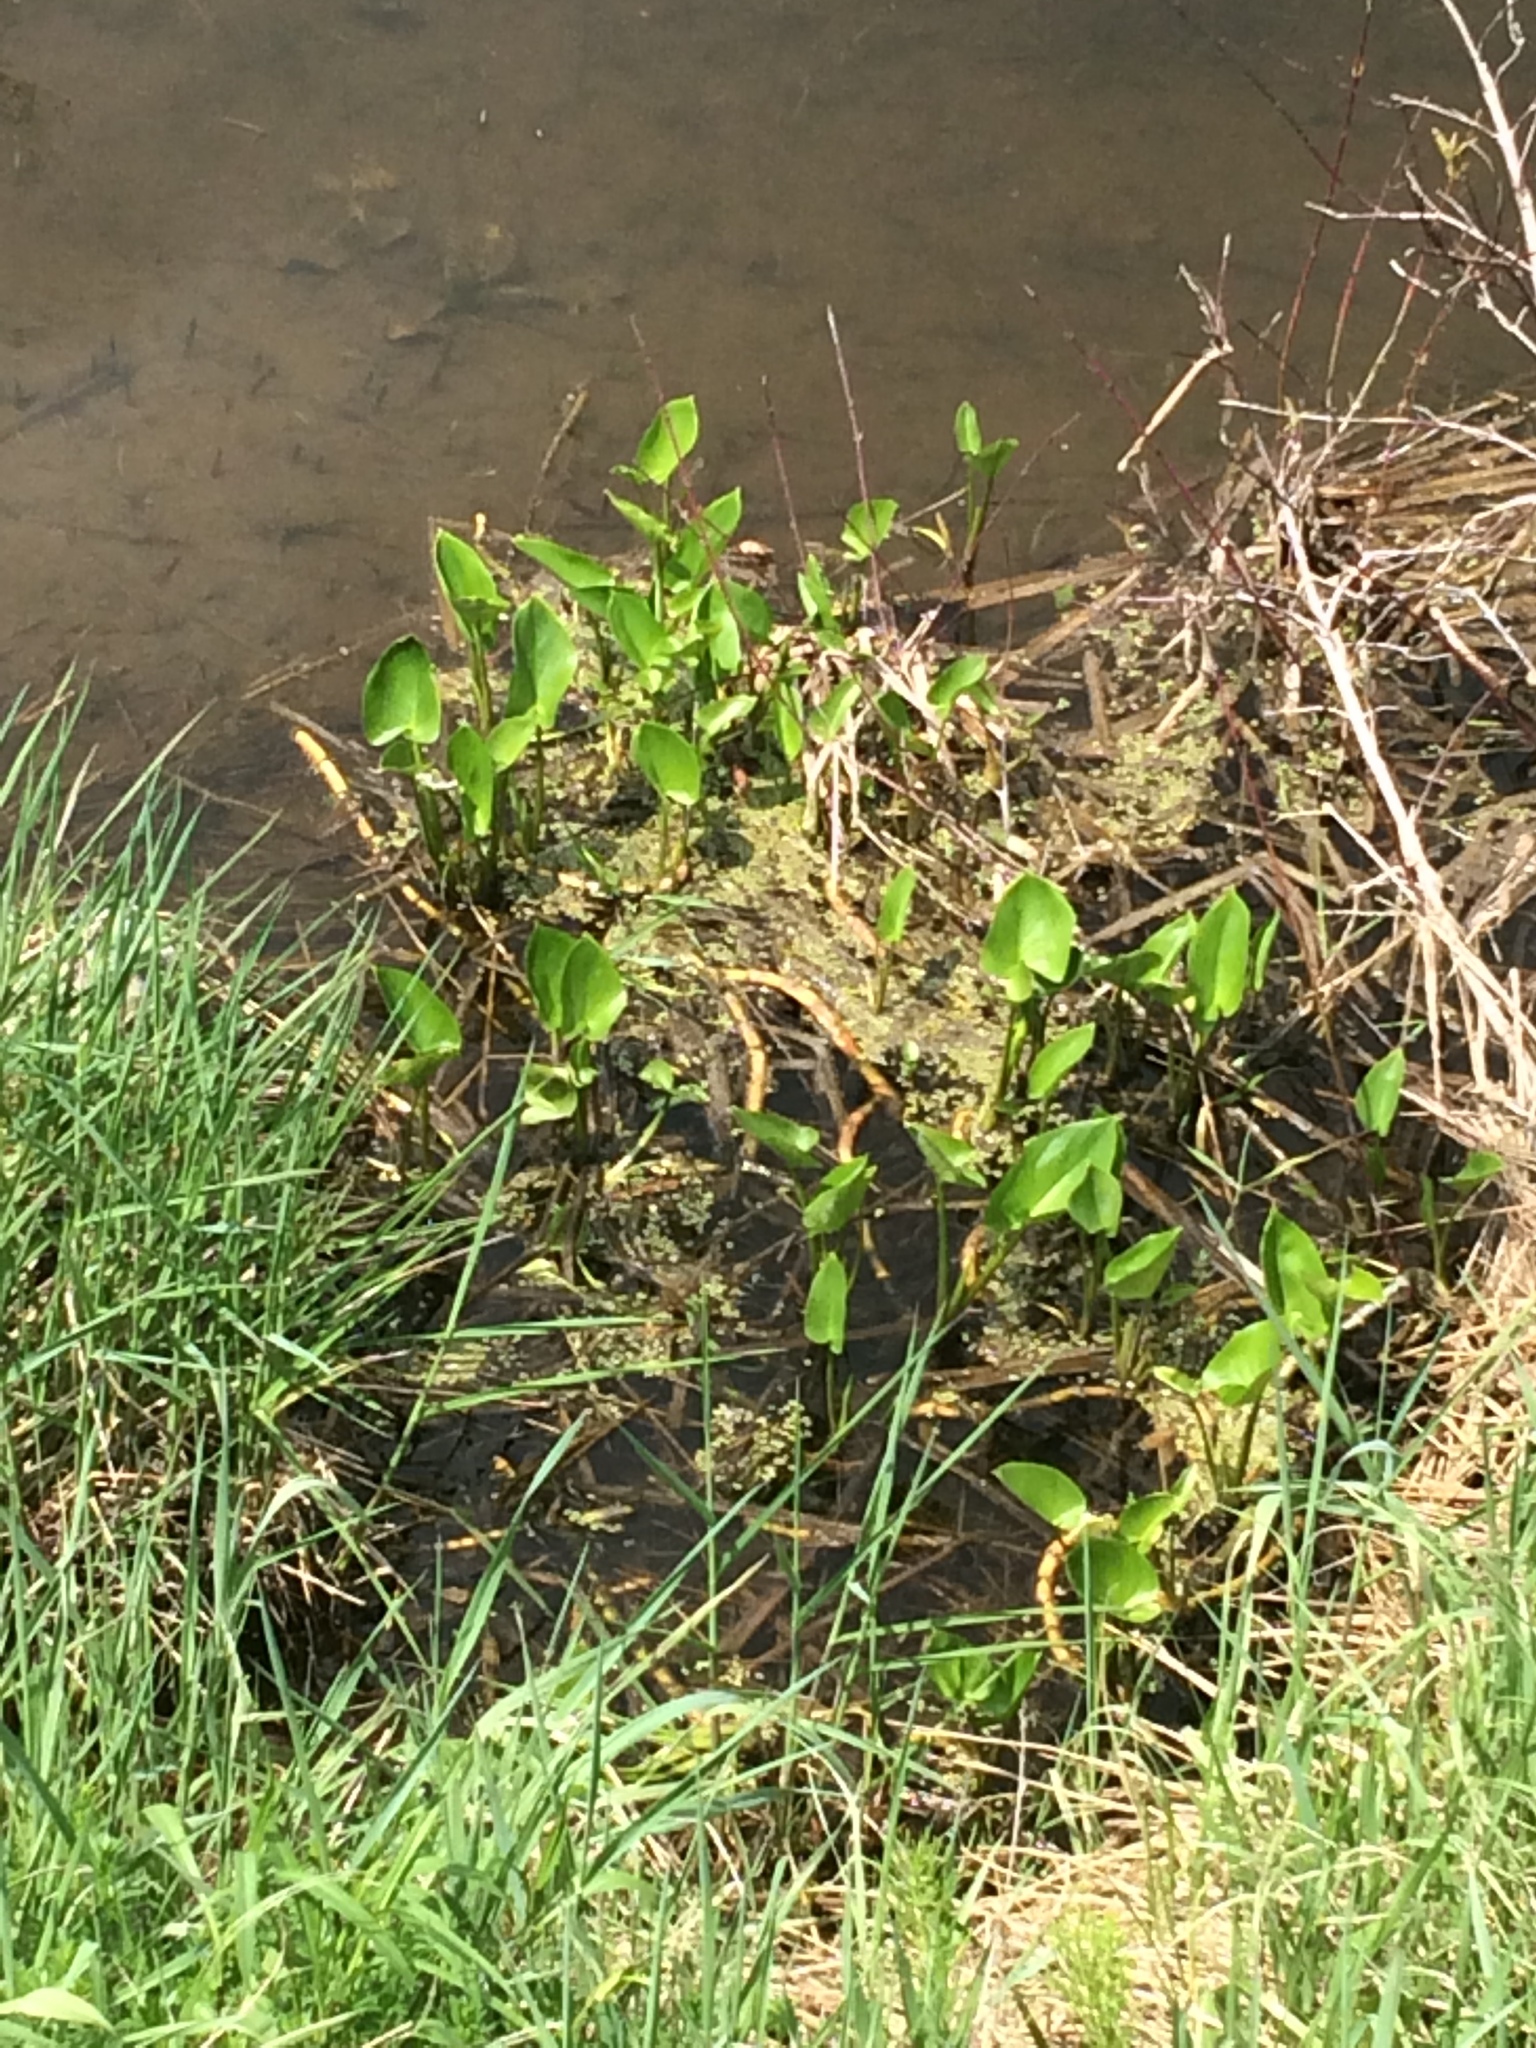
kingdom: Plantae
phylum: Tracheophyta
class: Liliopsida
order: Commelinales
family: Pontederiaceae
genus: Pontederia
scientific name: Pontederia cordata
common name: Pickerelweed
